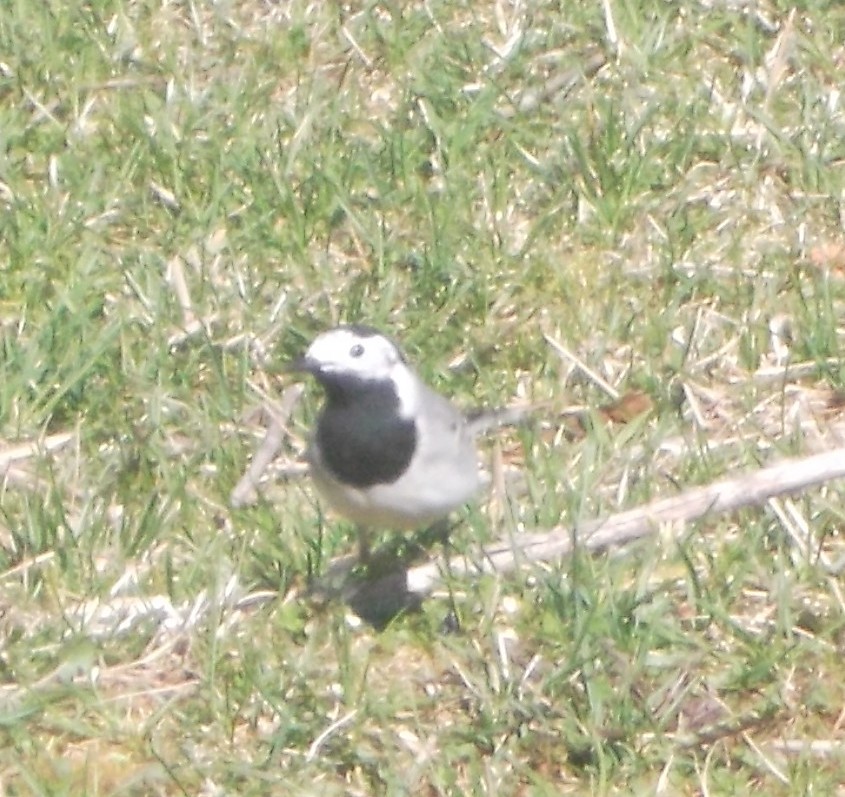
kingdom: Animalia
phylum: Chordata
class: Aves
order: Passeriformes
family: Motacillidae
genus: Motacilla
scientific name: Motacilla alba
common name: White wagtail
